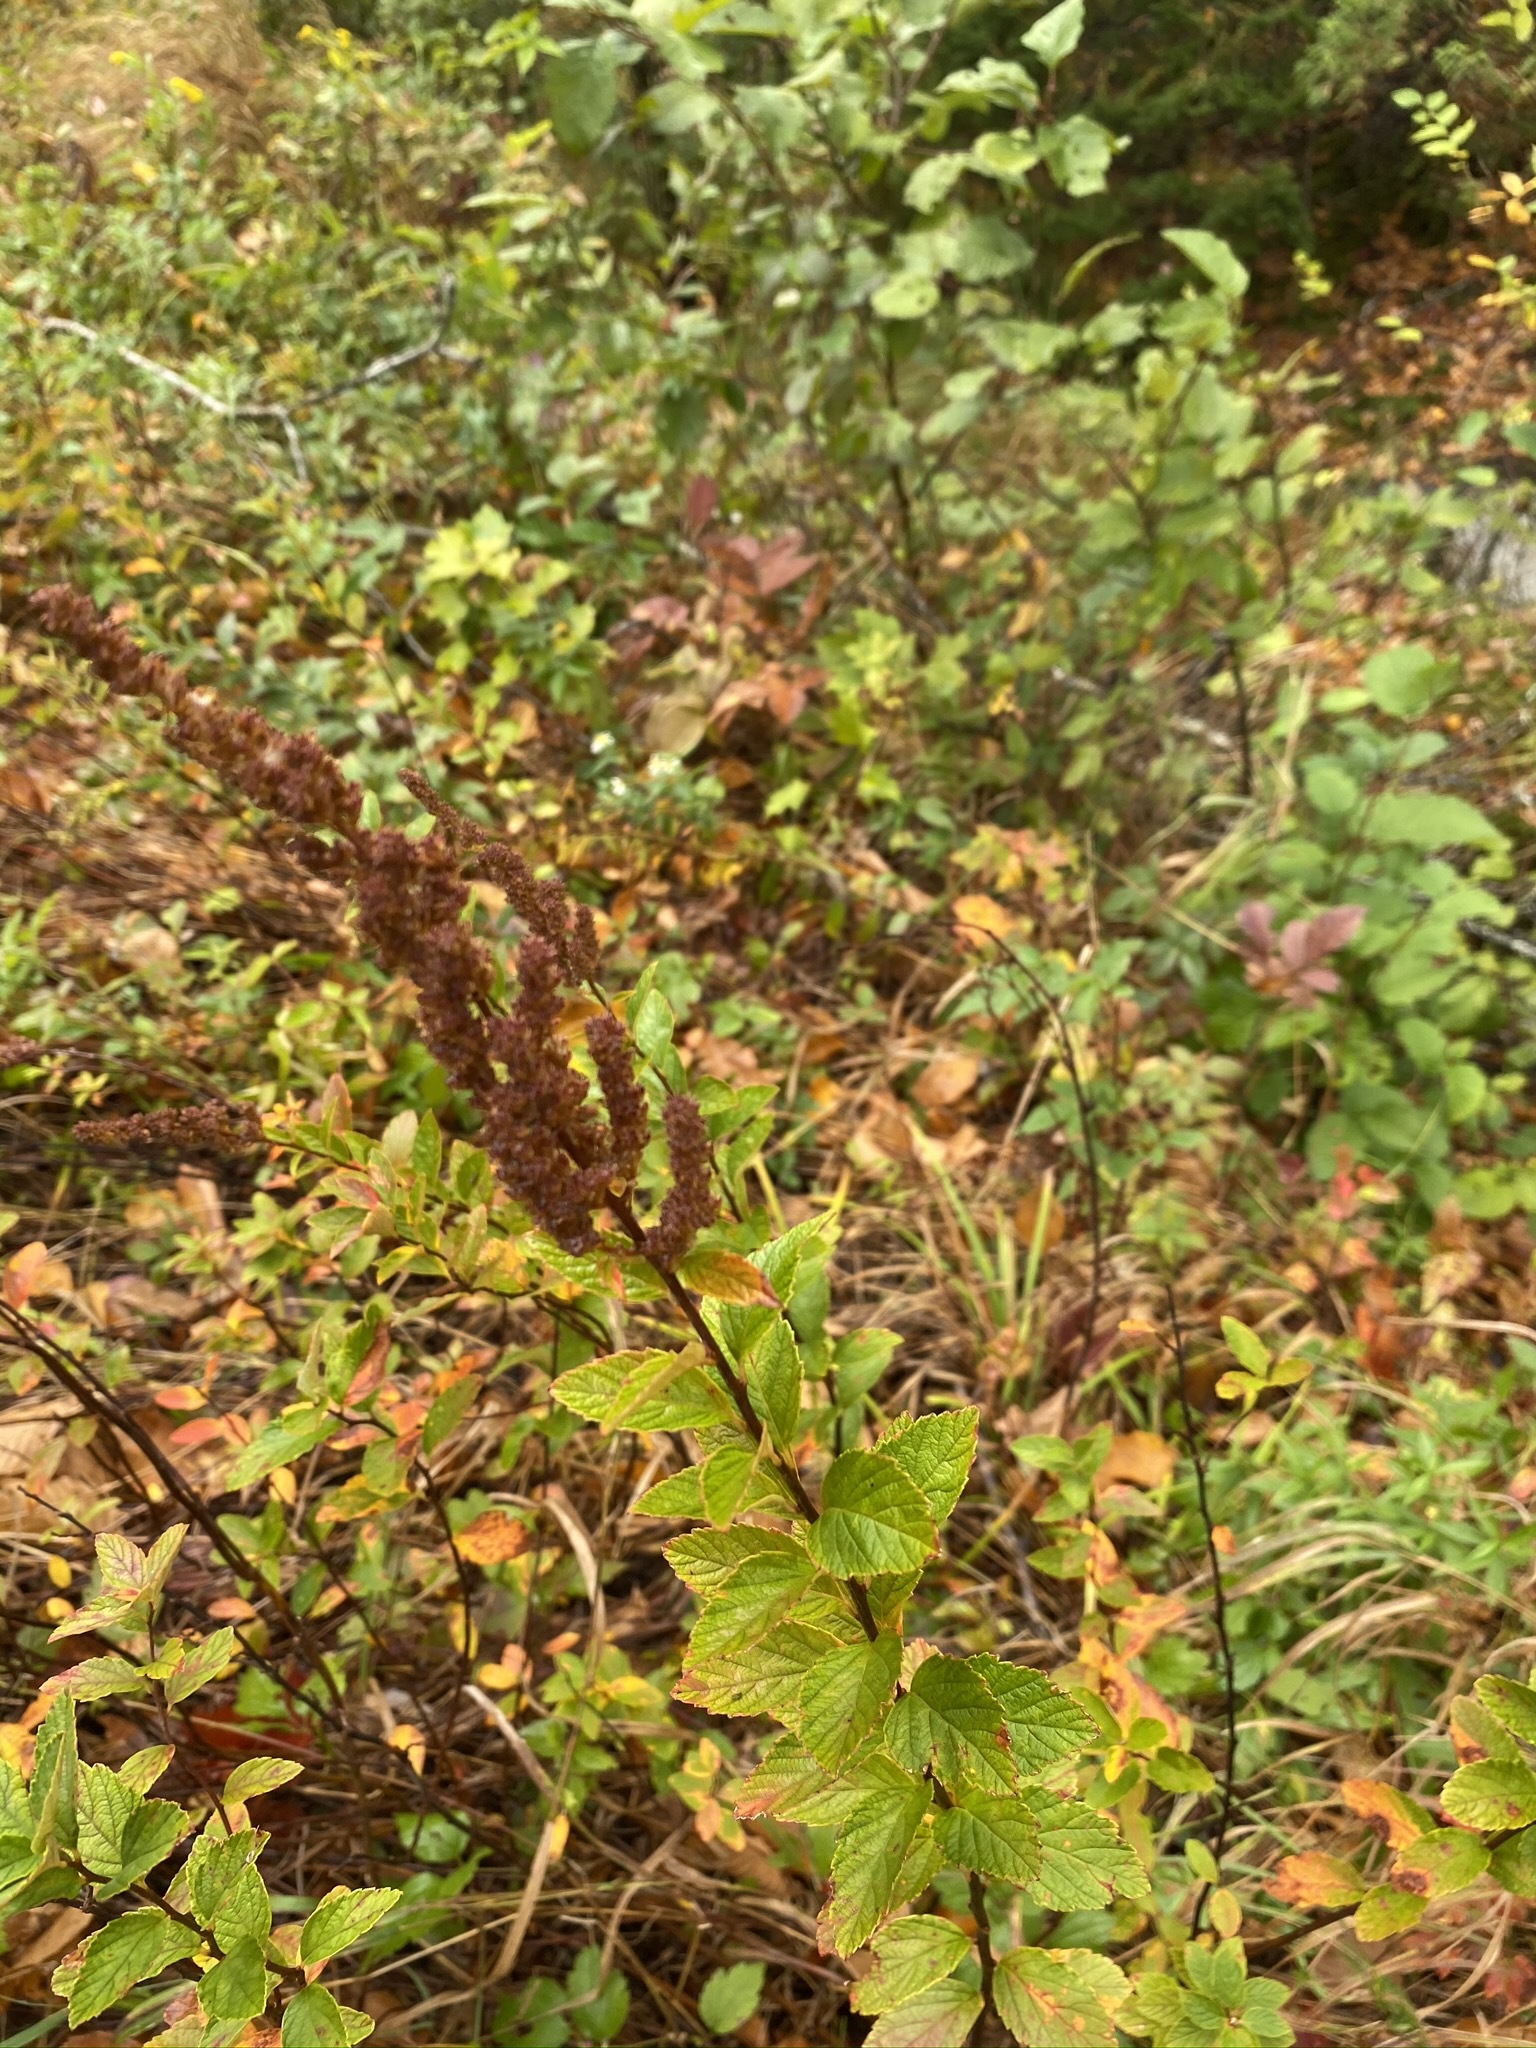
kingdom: Plantae
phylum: Tracheophyta
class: Magnoliopsida
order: Rosales
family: Rosaceae
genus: Spiraea
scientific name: Spiraea tomentosa
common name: Hardhack
